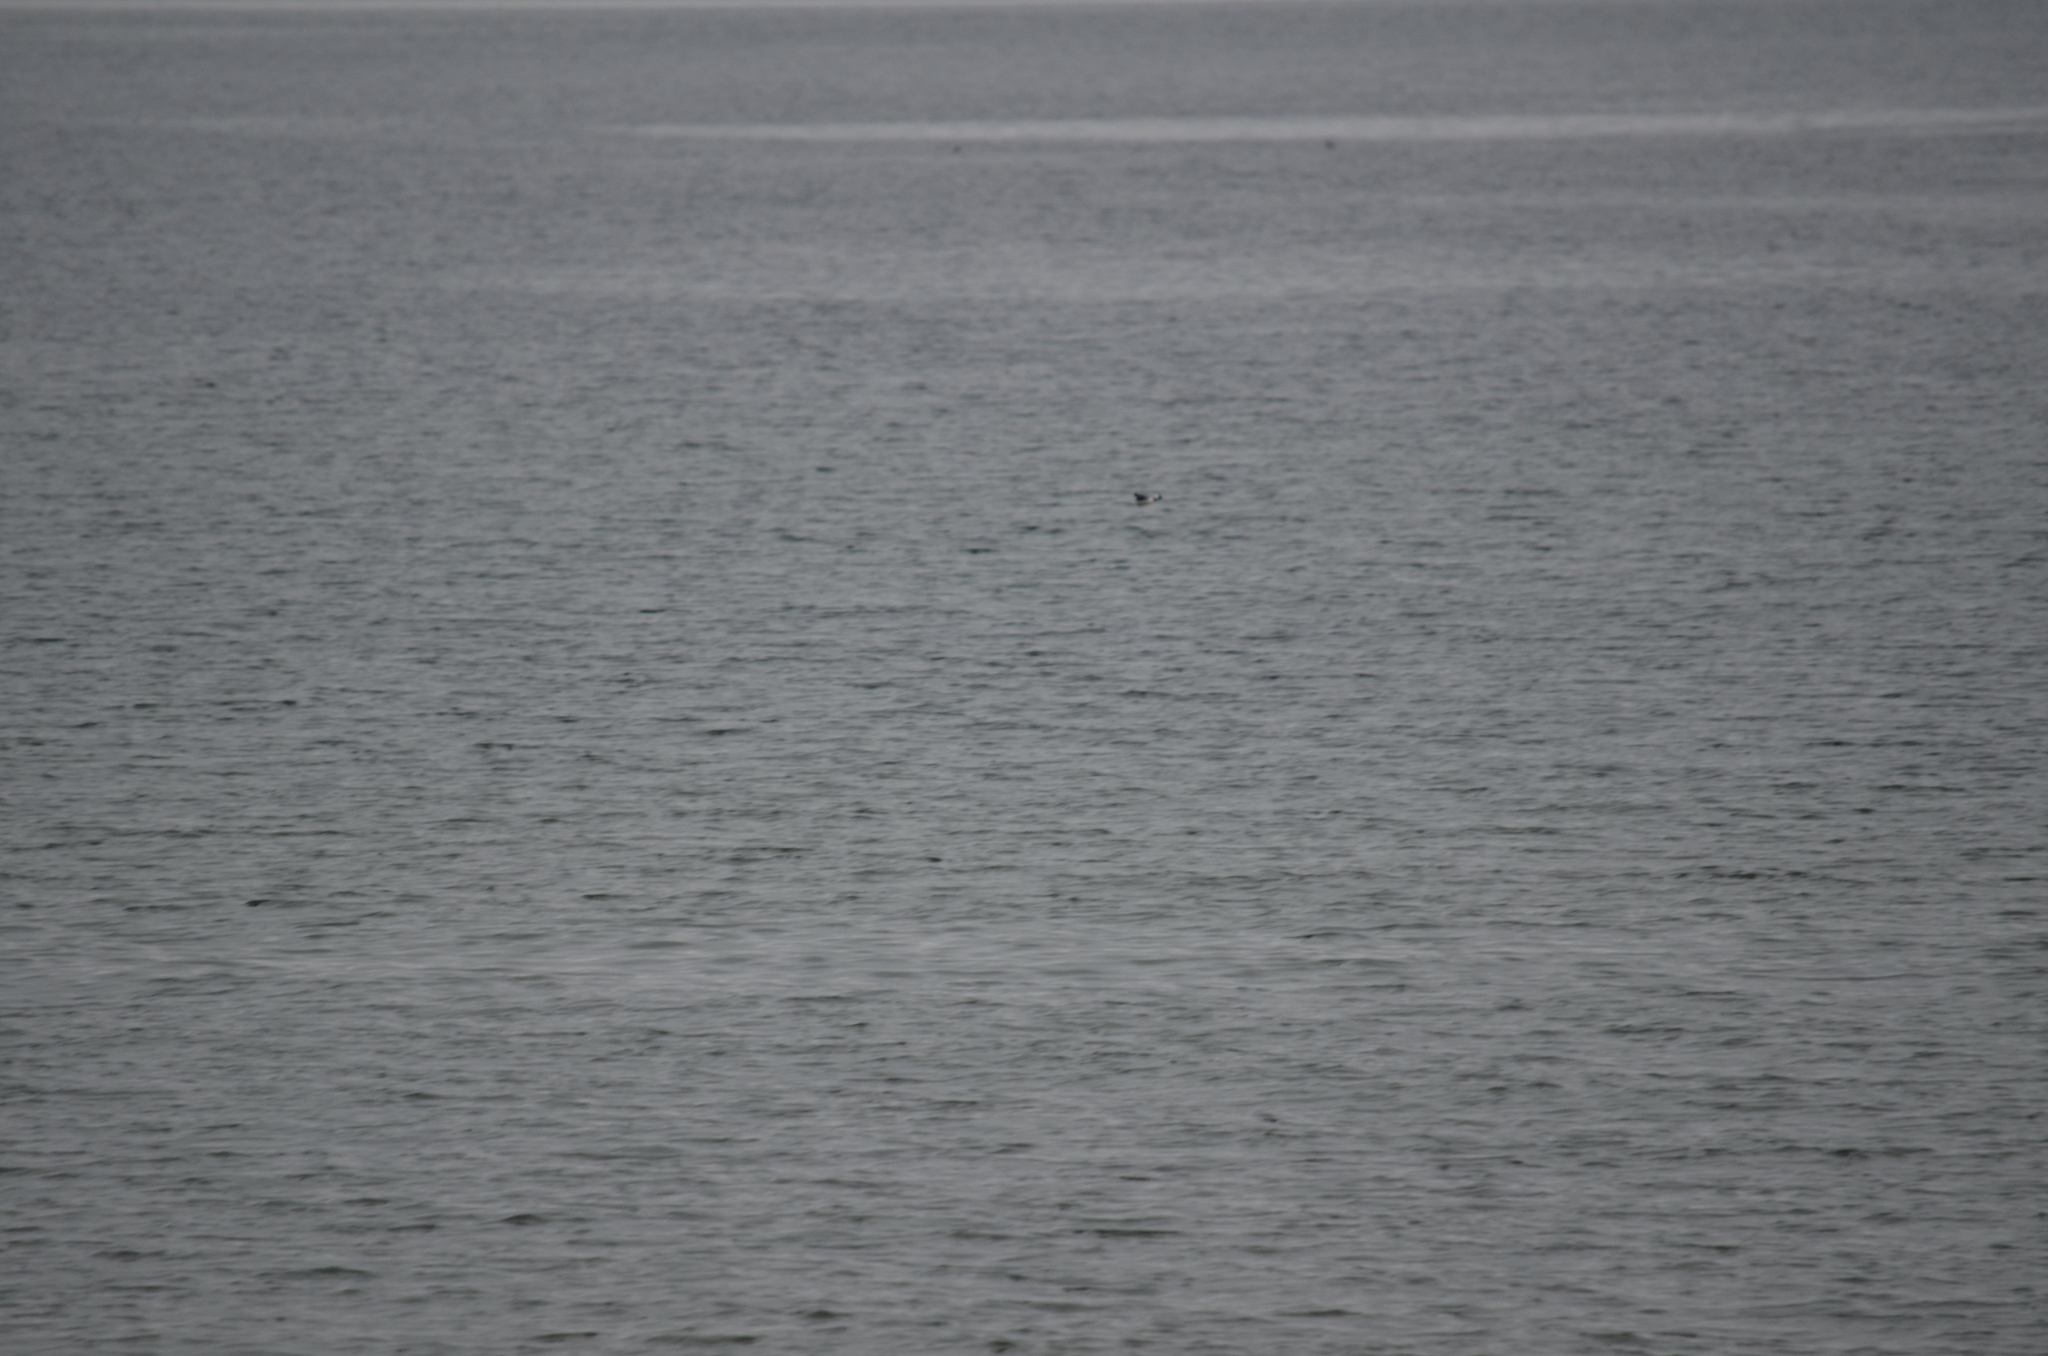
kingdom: Animalia
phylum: Chordata
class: Aves
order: Anseriformes
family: Anatidae
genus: Bucephala
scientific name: Bucephala albeola
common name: Bufflehead
